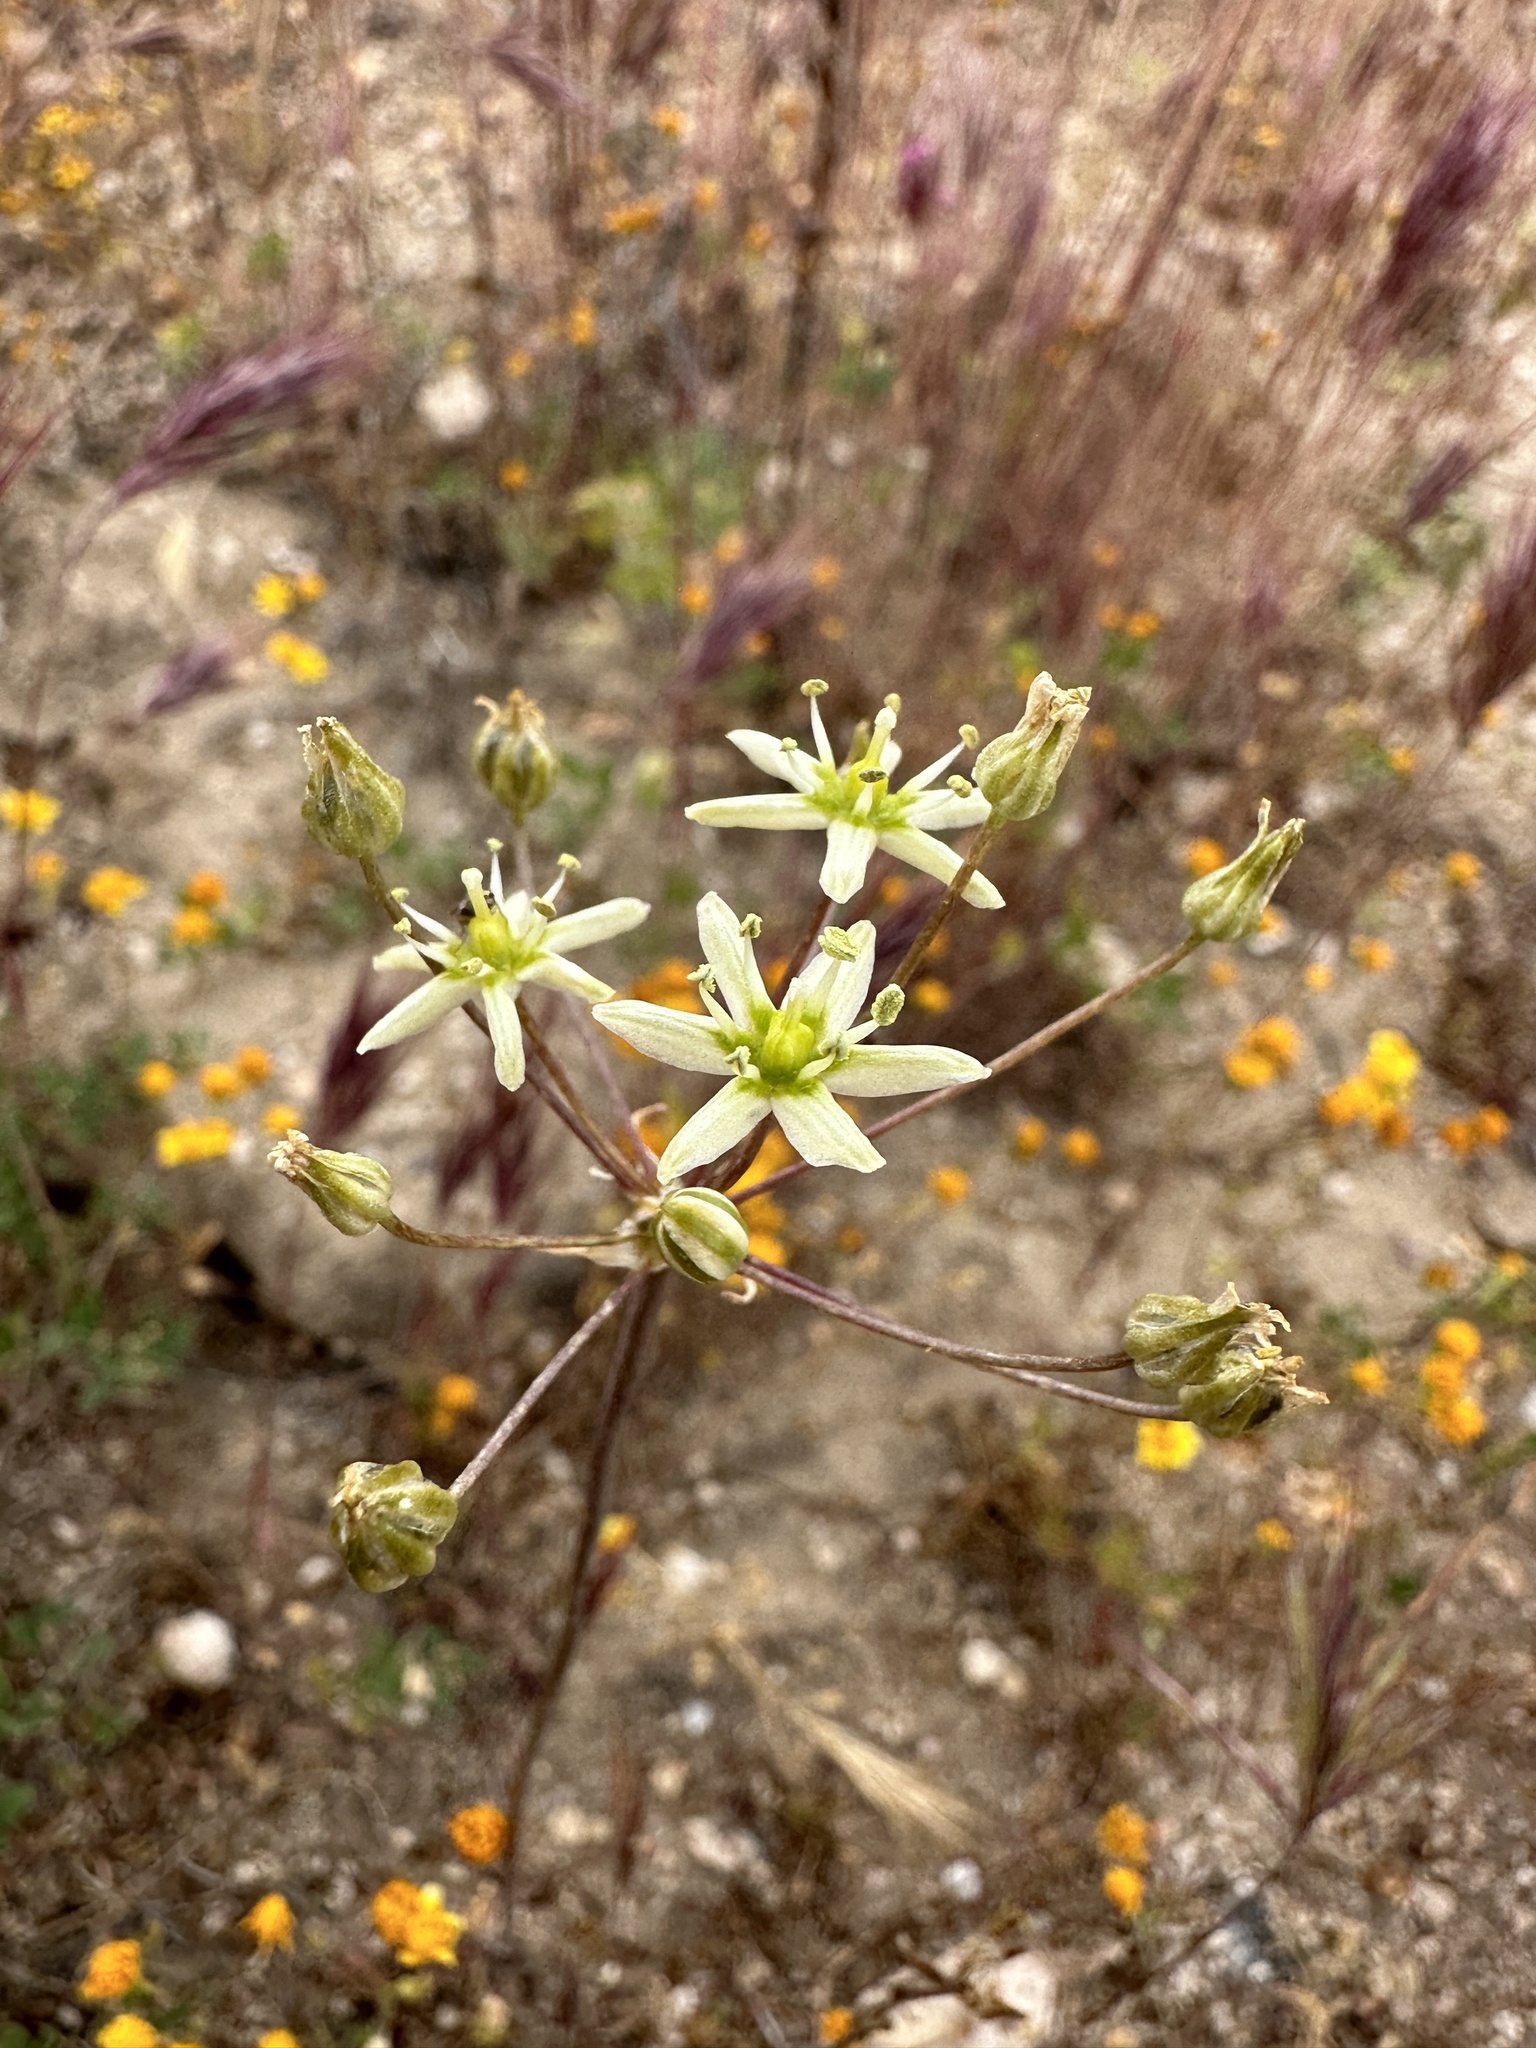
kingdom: Plantae
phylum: Tracheophyta
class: Liliopsida
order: Asparagales
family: Asparagaceae
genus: Muilla
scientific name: Muilla maritima
